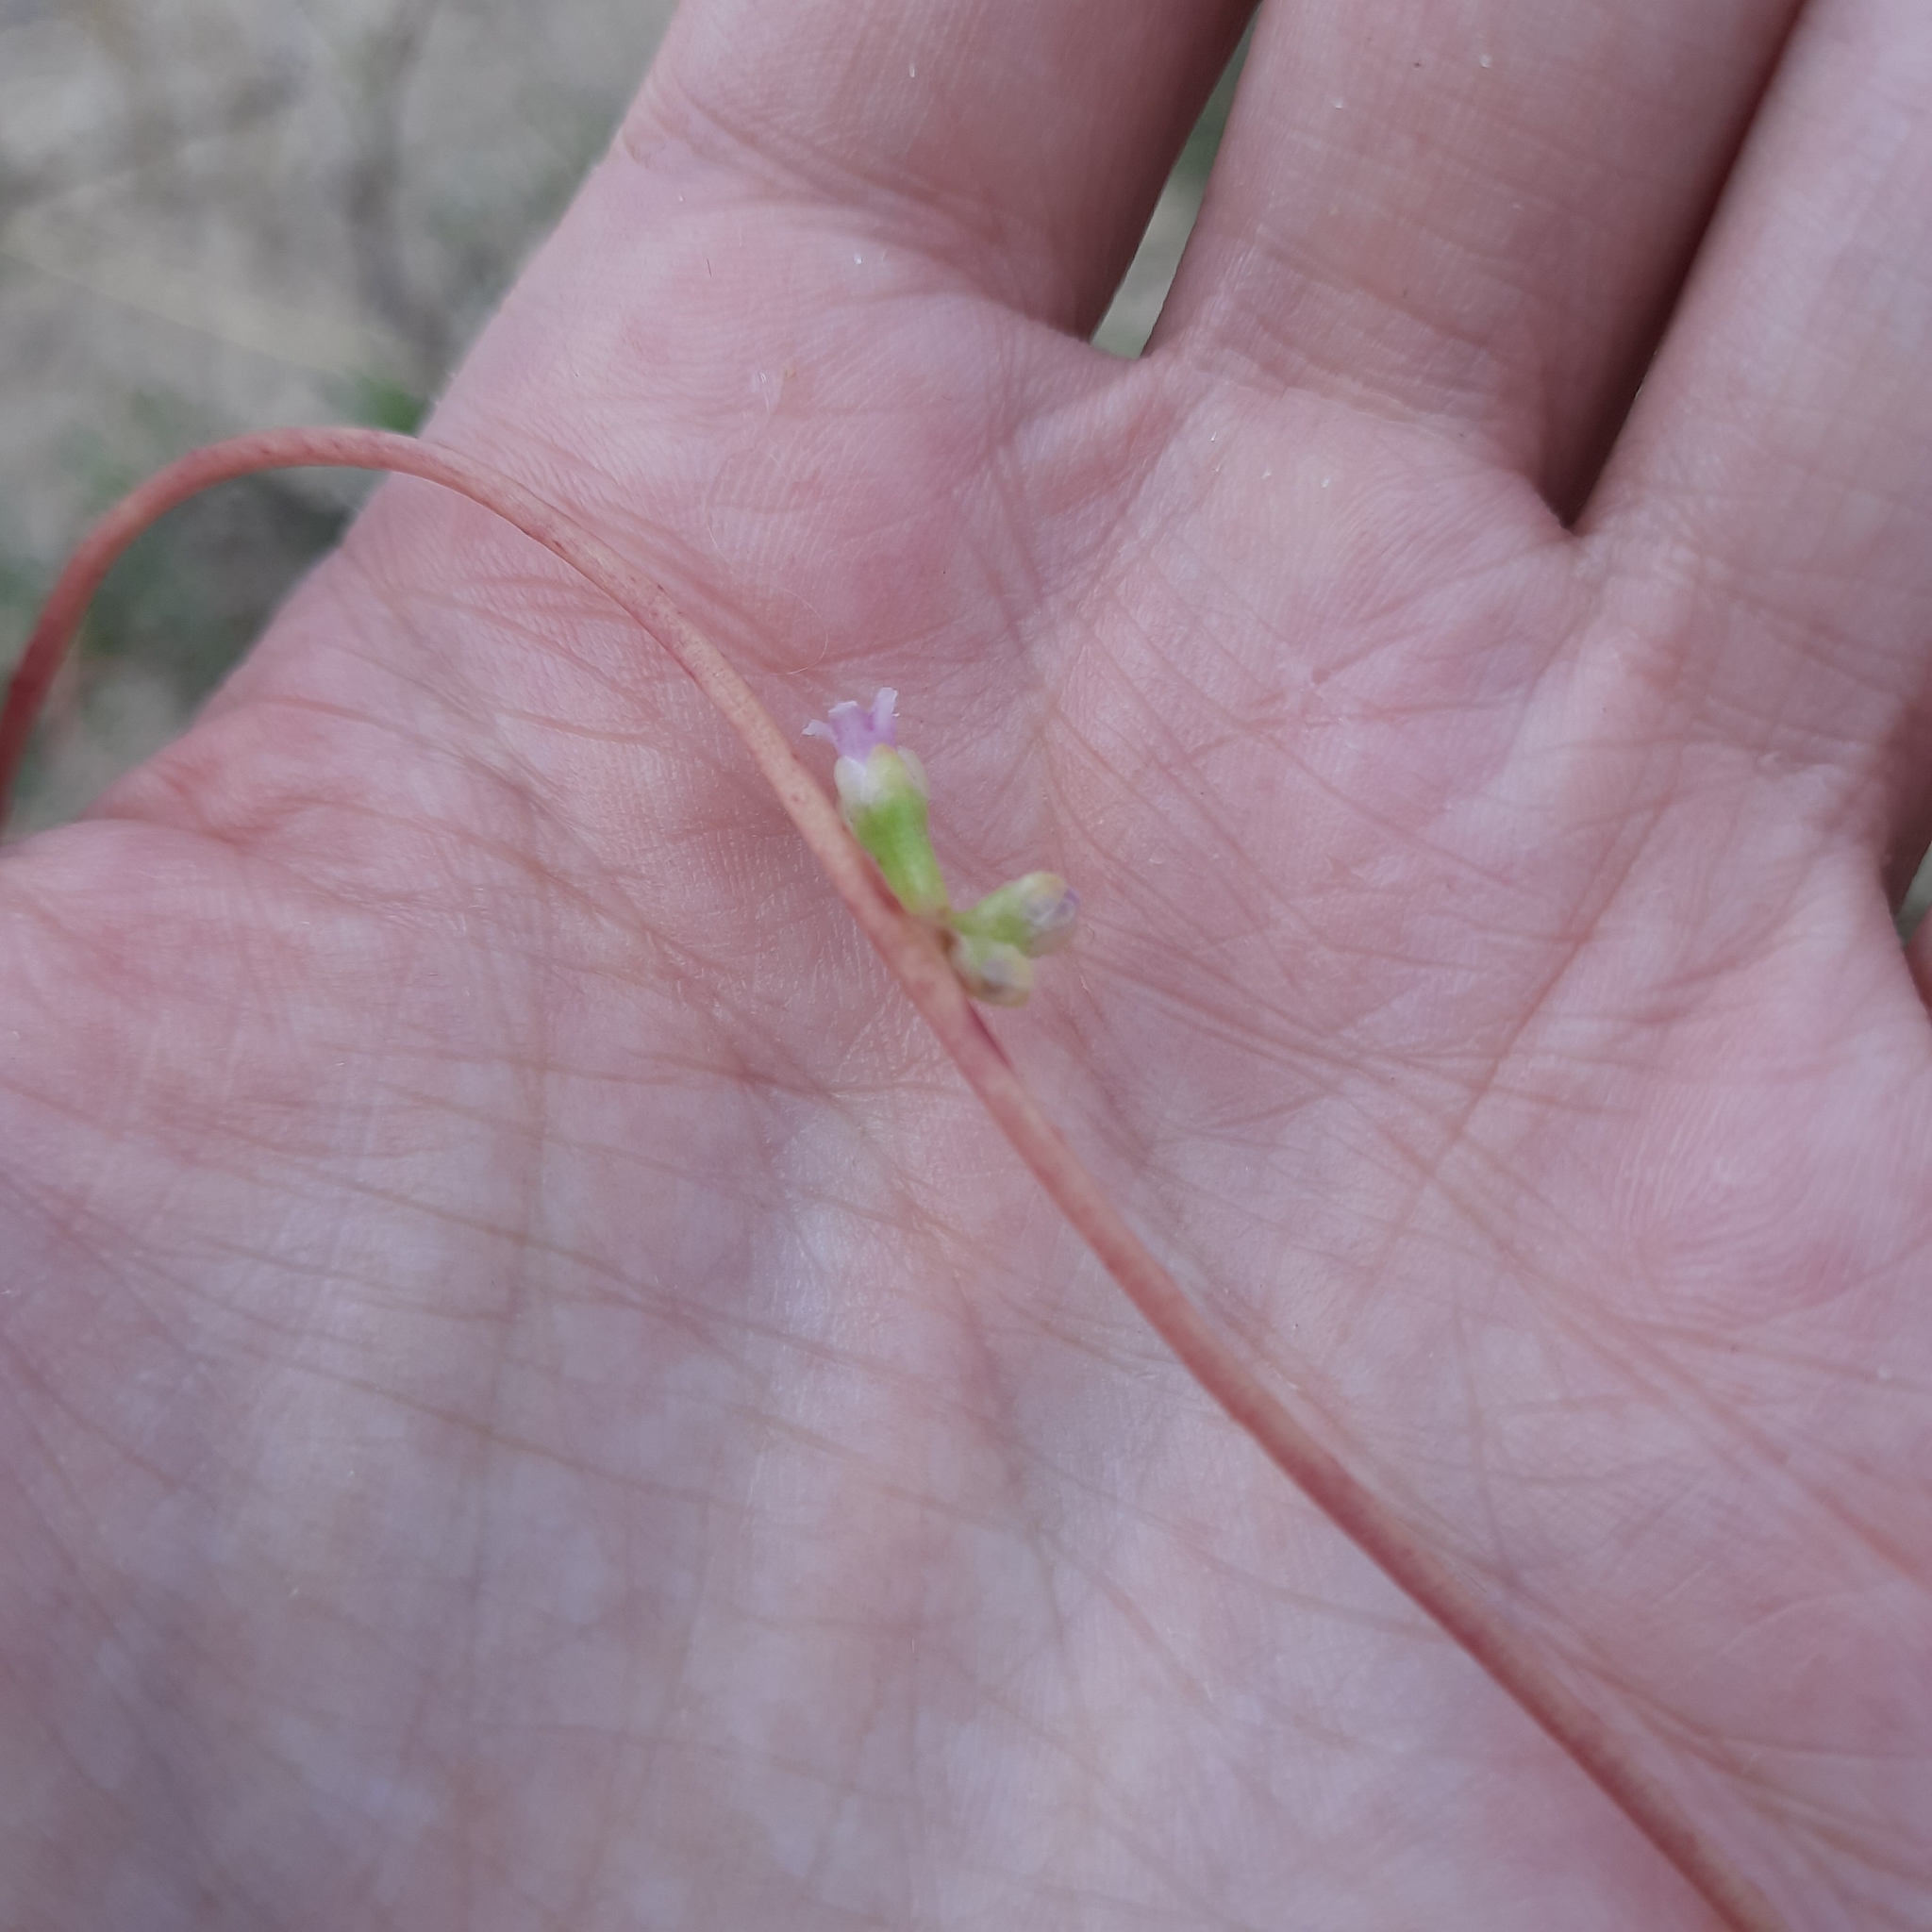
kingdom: Plantae
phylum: Tracheophyta
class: Magnoliopsida
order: Solanales
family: Convolvulaceae
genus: Cuscuta
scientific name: Cuscuta monogyna
